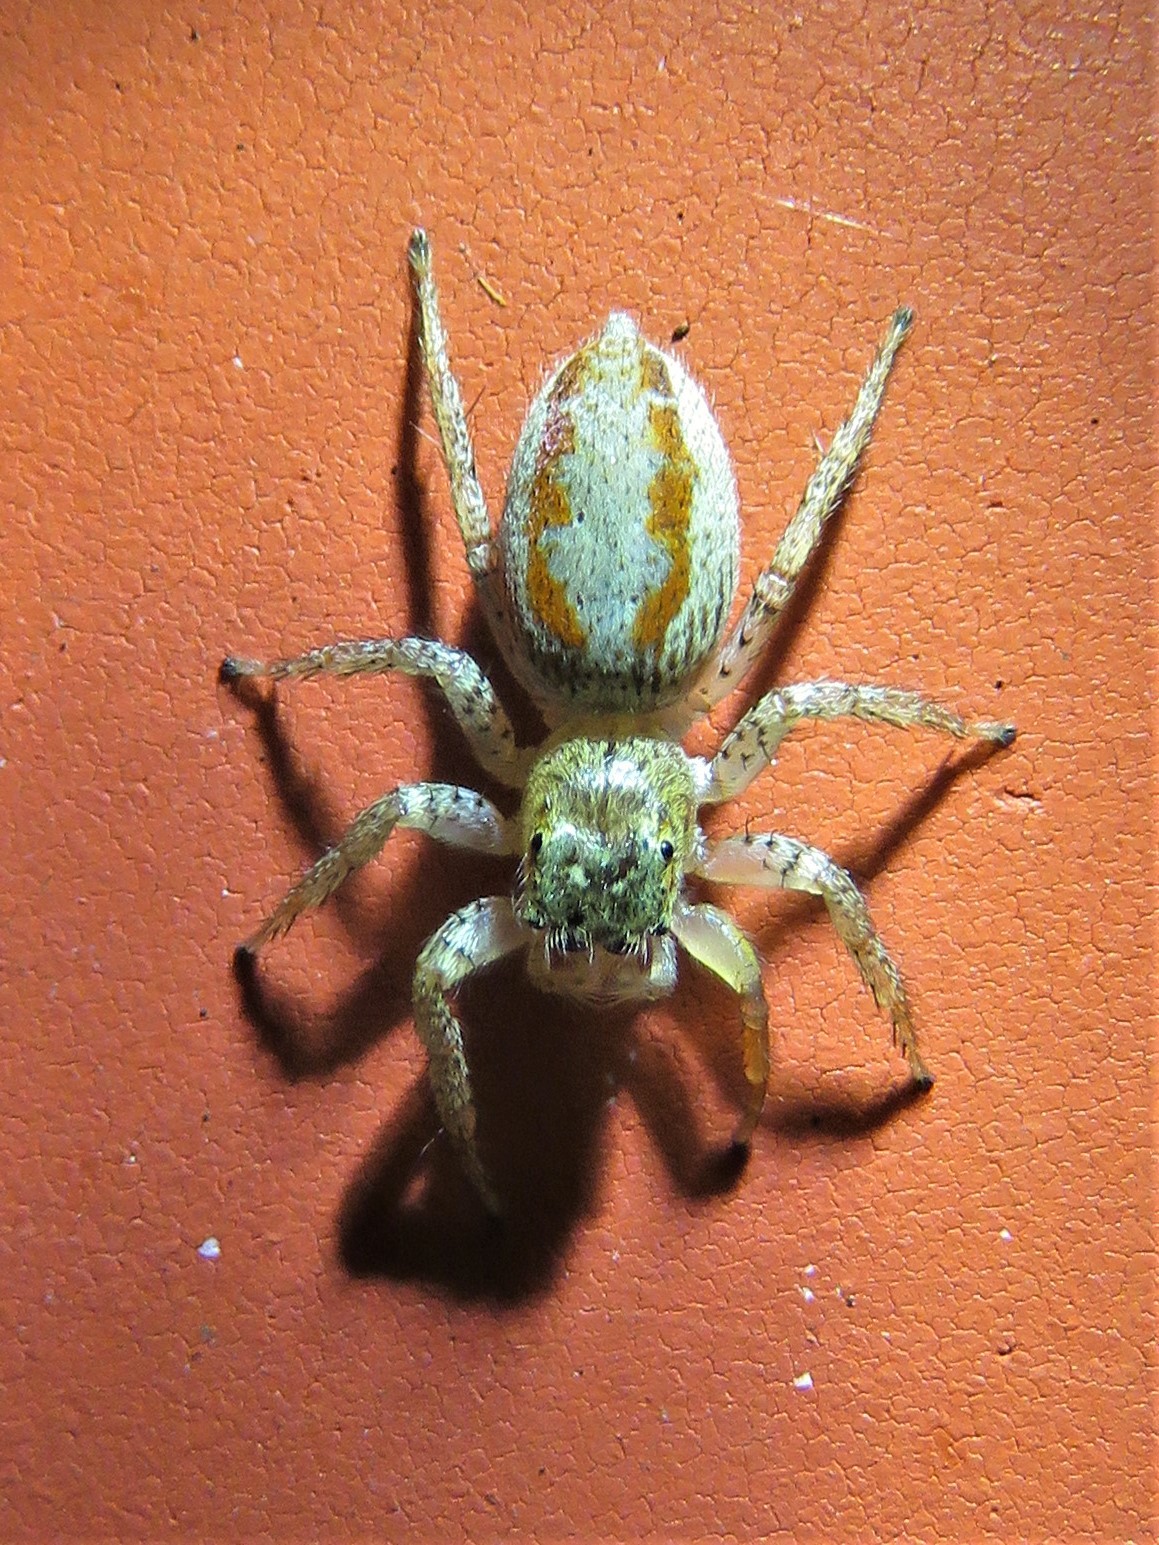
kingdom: Animalia
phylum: Arthropoda
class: Arachnida
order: Araneae
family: Salticidae
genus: Maevia
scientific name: Maevia inclemens
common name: Dimorphic jumper
